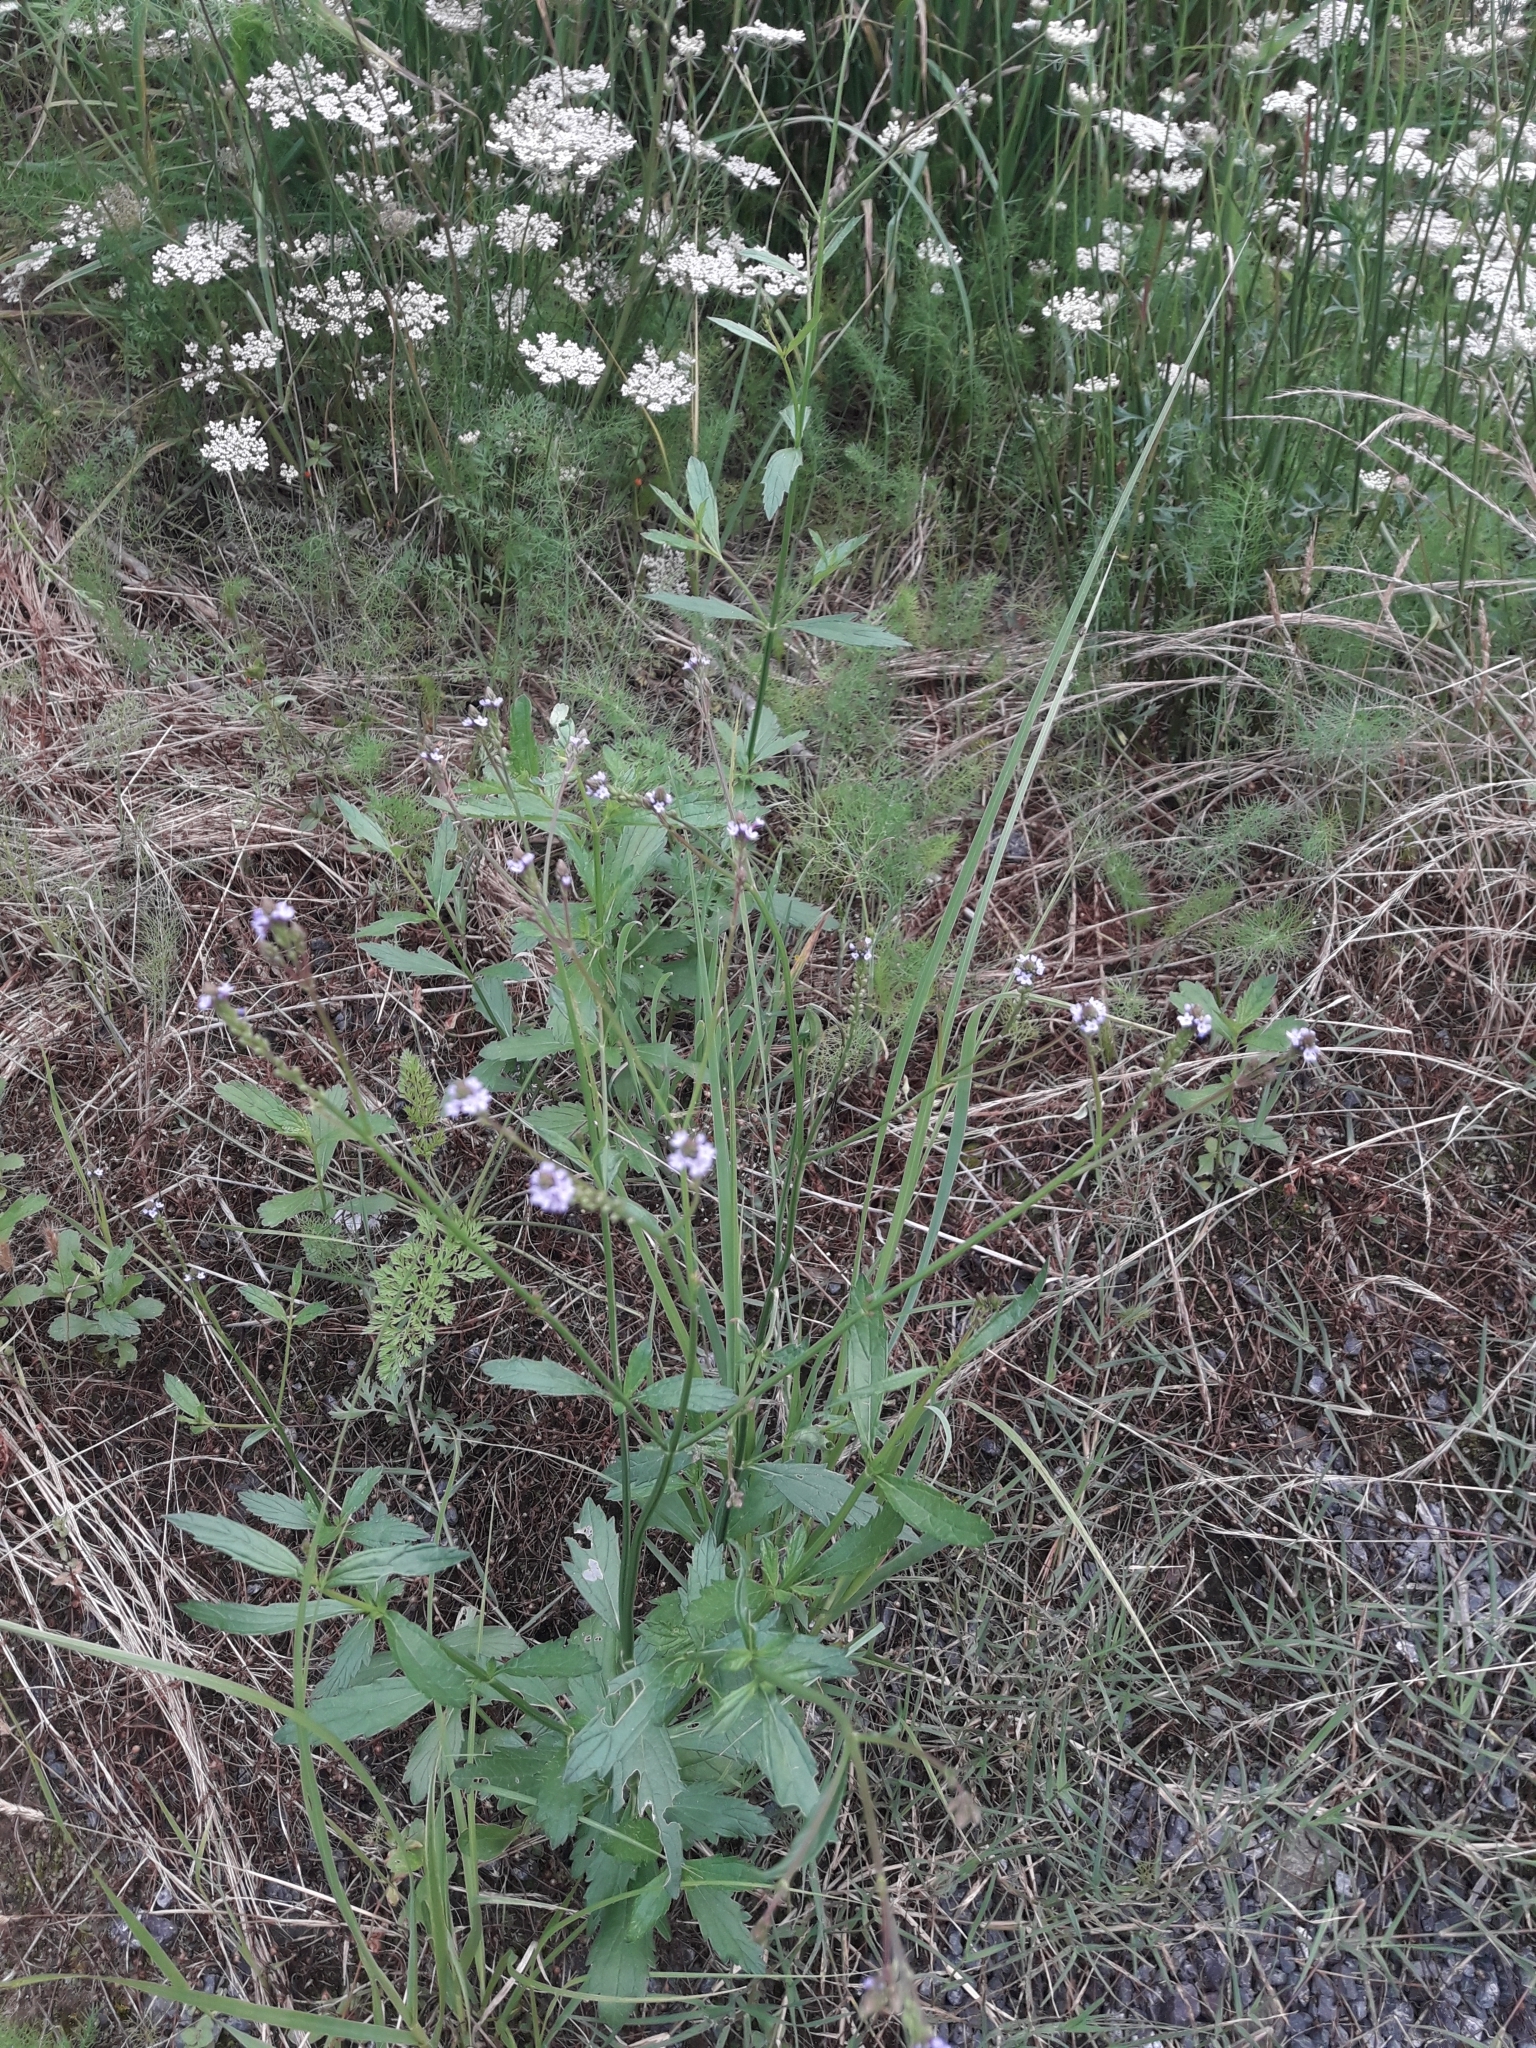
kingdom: Plantae
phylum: Tracheophyta
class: Magnoliopsida
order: Lamiales
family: Verbenaceae
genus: Verbena
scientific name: Verbena litoralis
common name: Seashore vervain
